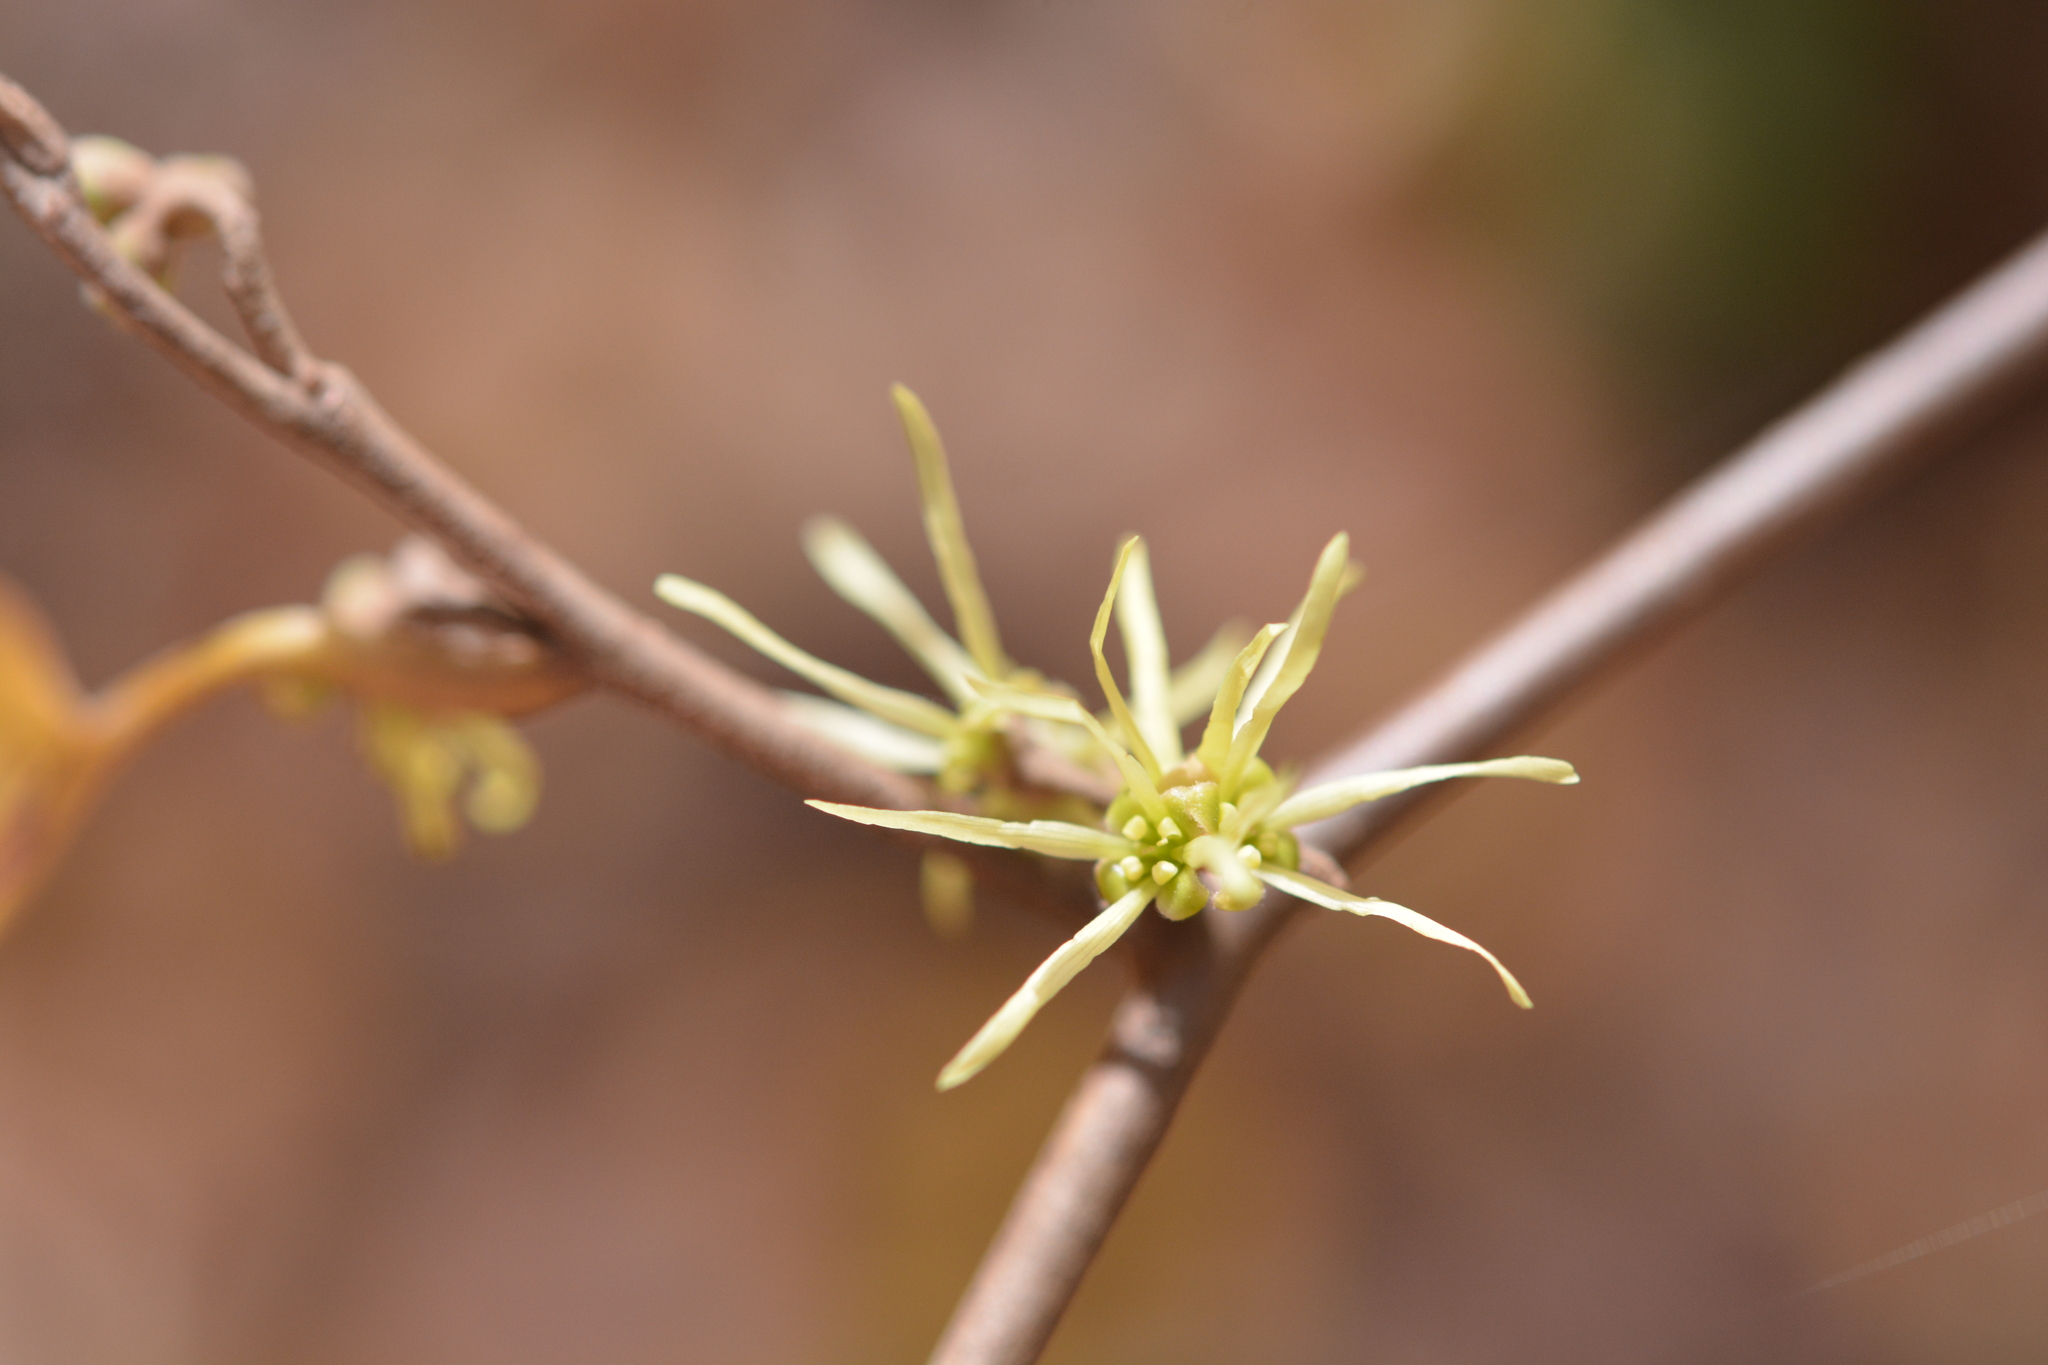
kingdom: Plantae
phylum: Tracheophyta
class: Magnoliopsida
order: Saxifragales
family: Hamamelidaceae
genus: Hamamelis
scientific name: Hamamelis virginiana
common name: Witch-hazel
